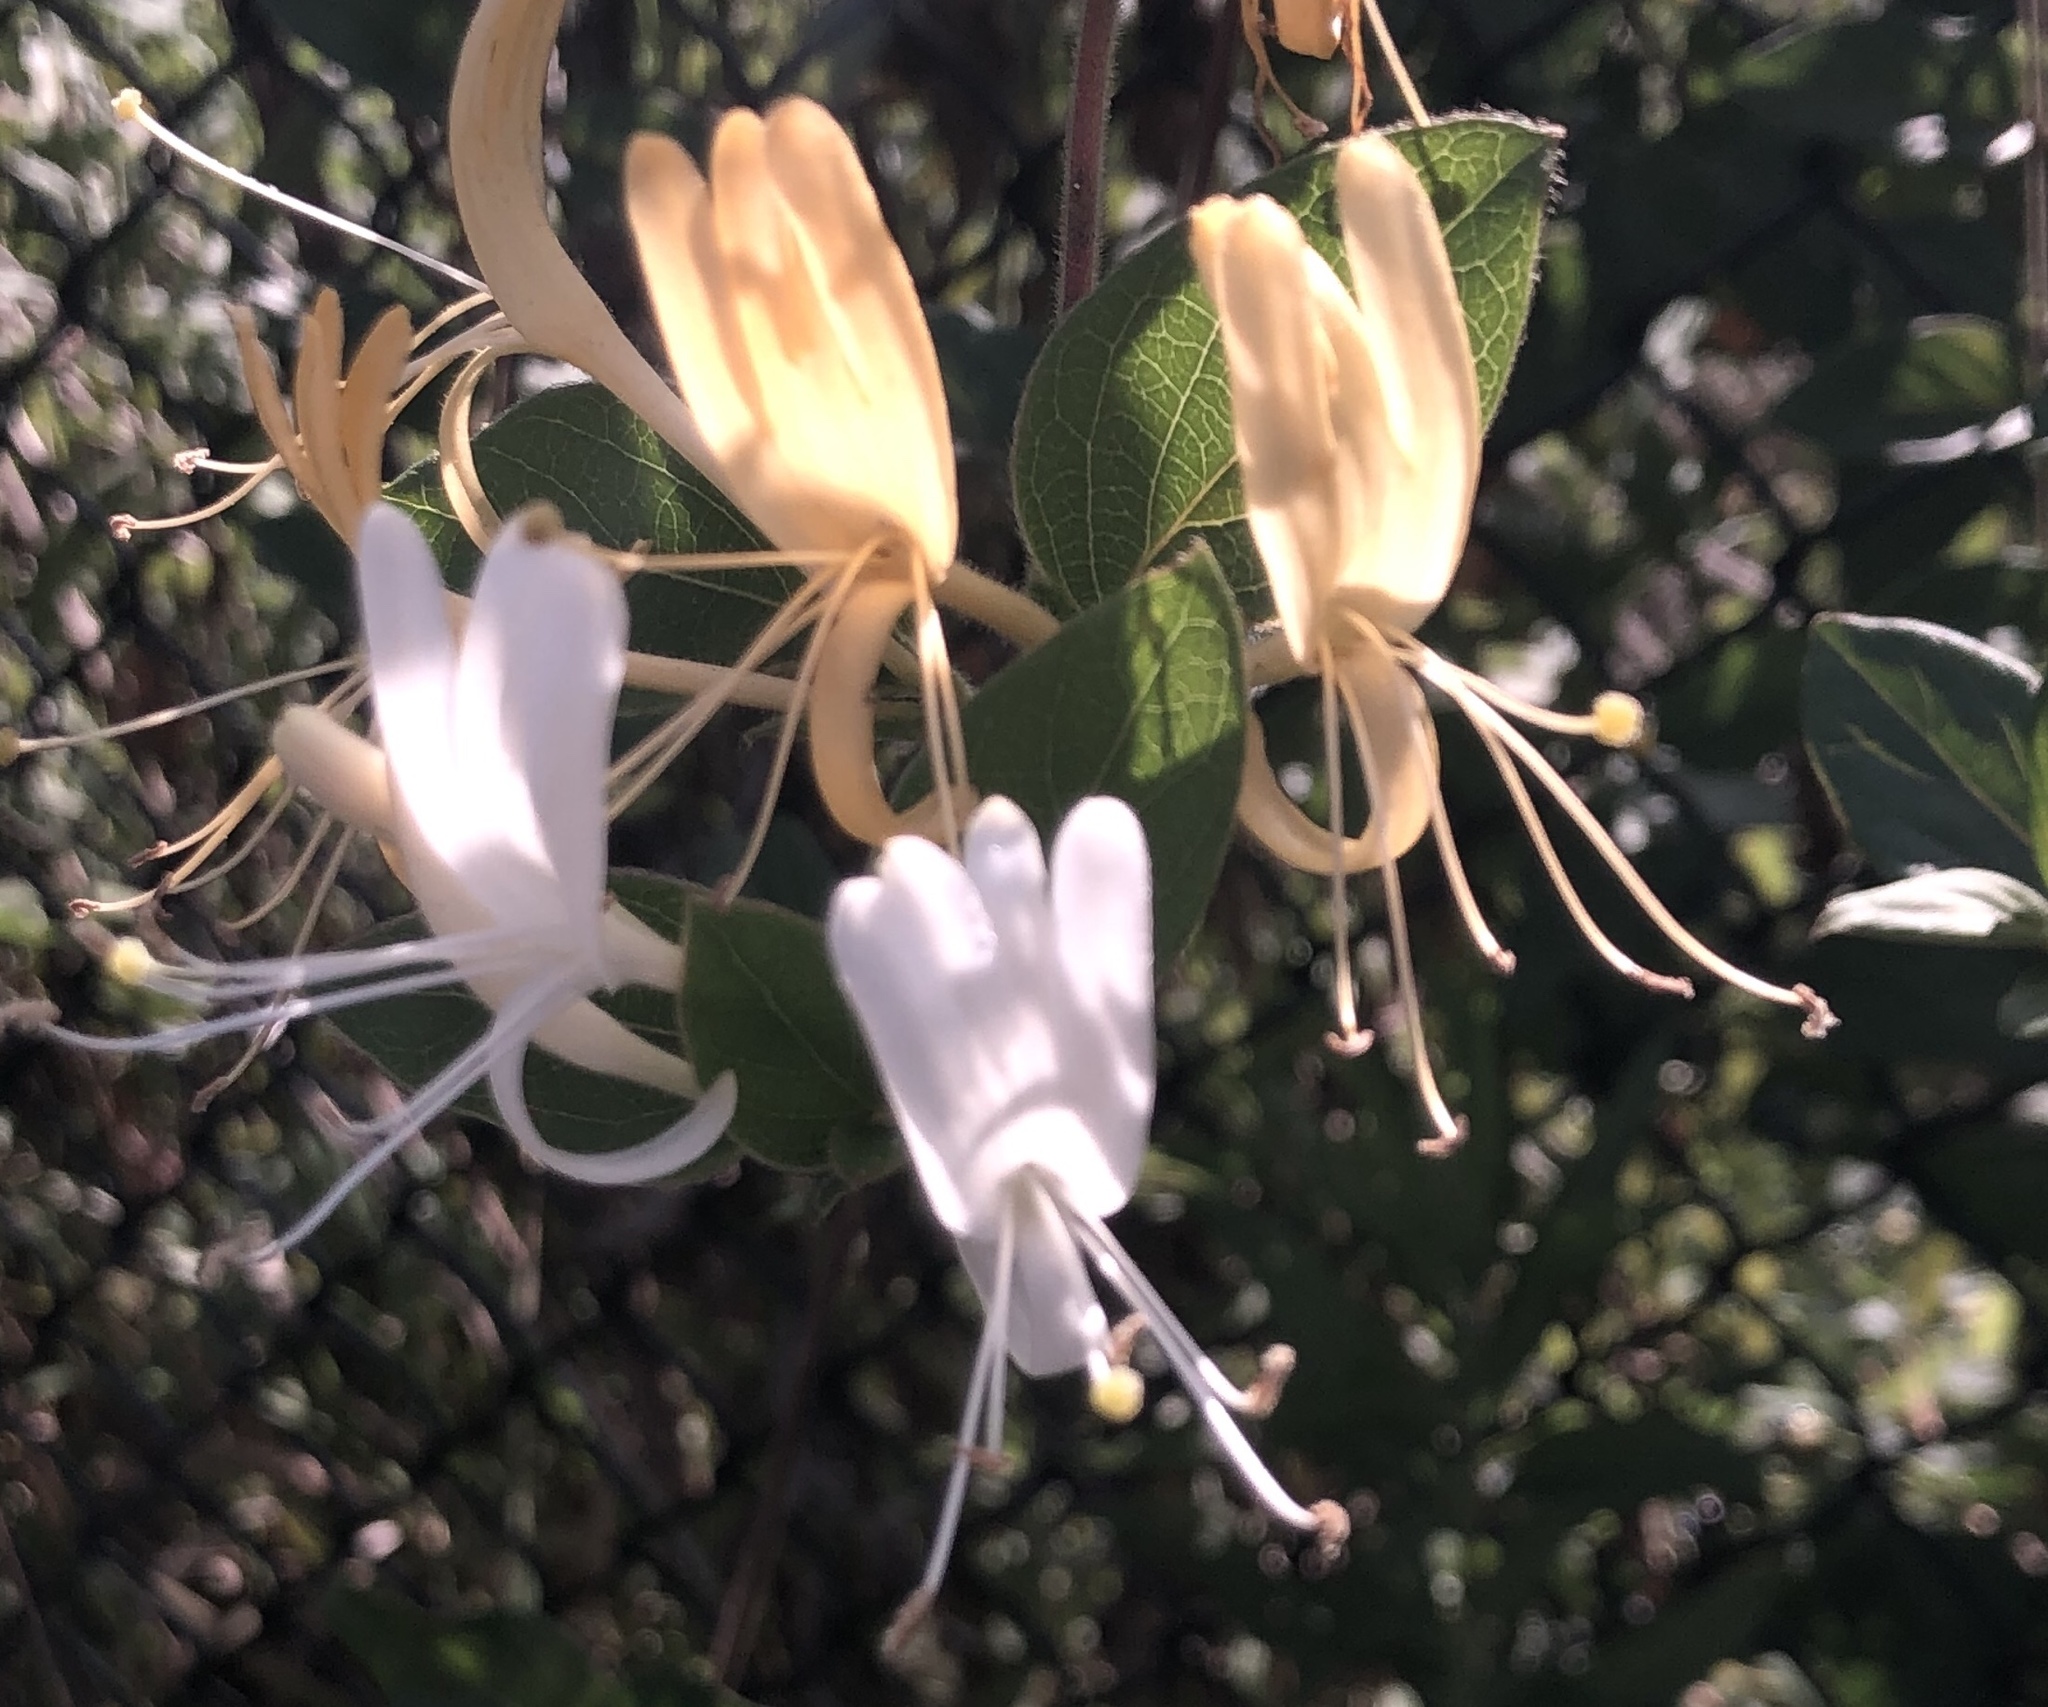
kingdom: Plantae
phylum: Tracheophyta
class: Magnoliopsida
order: Dipsacales
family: Caprifoliaceae
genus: Lonicera
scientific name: Lonicera japonica
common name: Japanese honeysuckle
